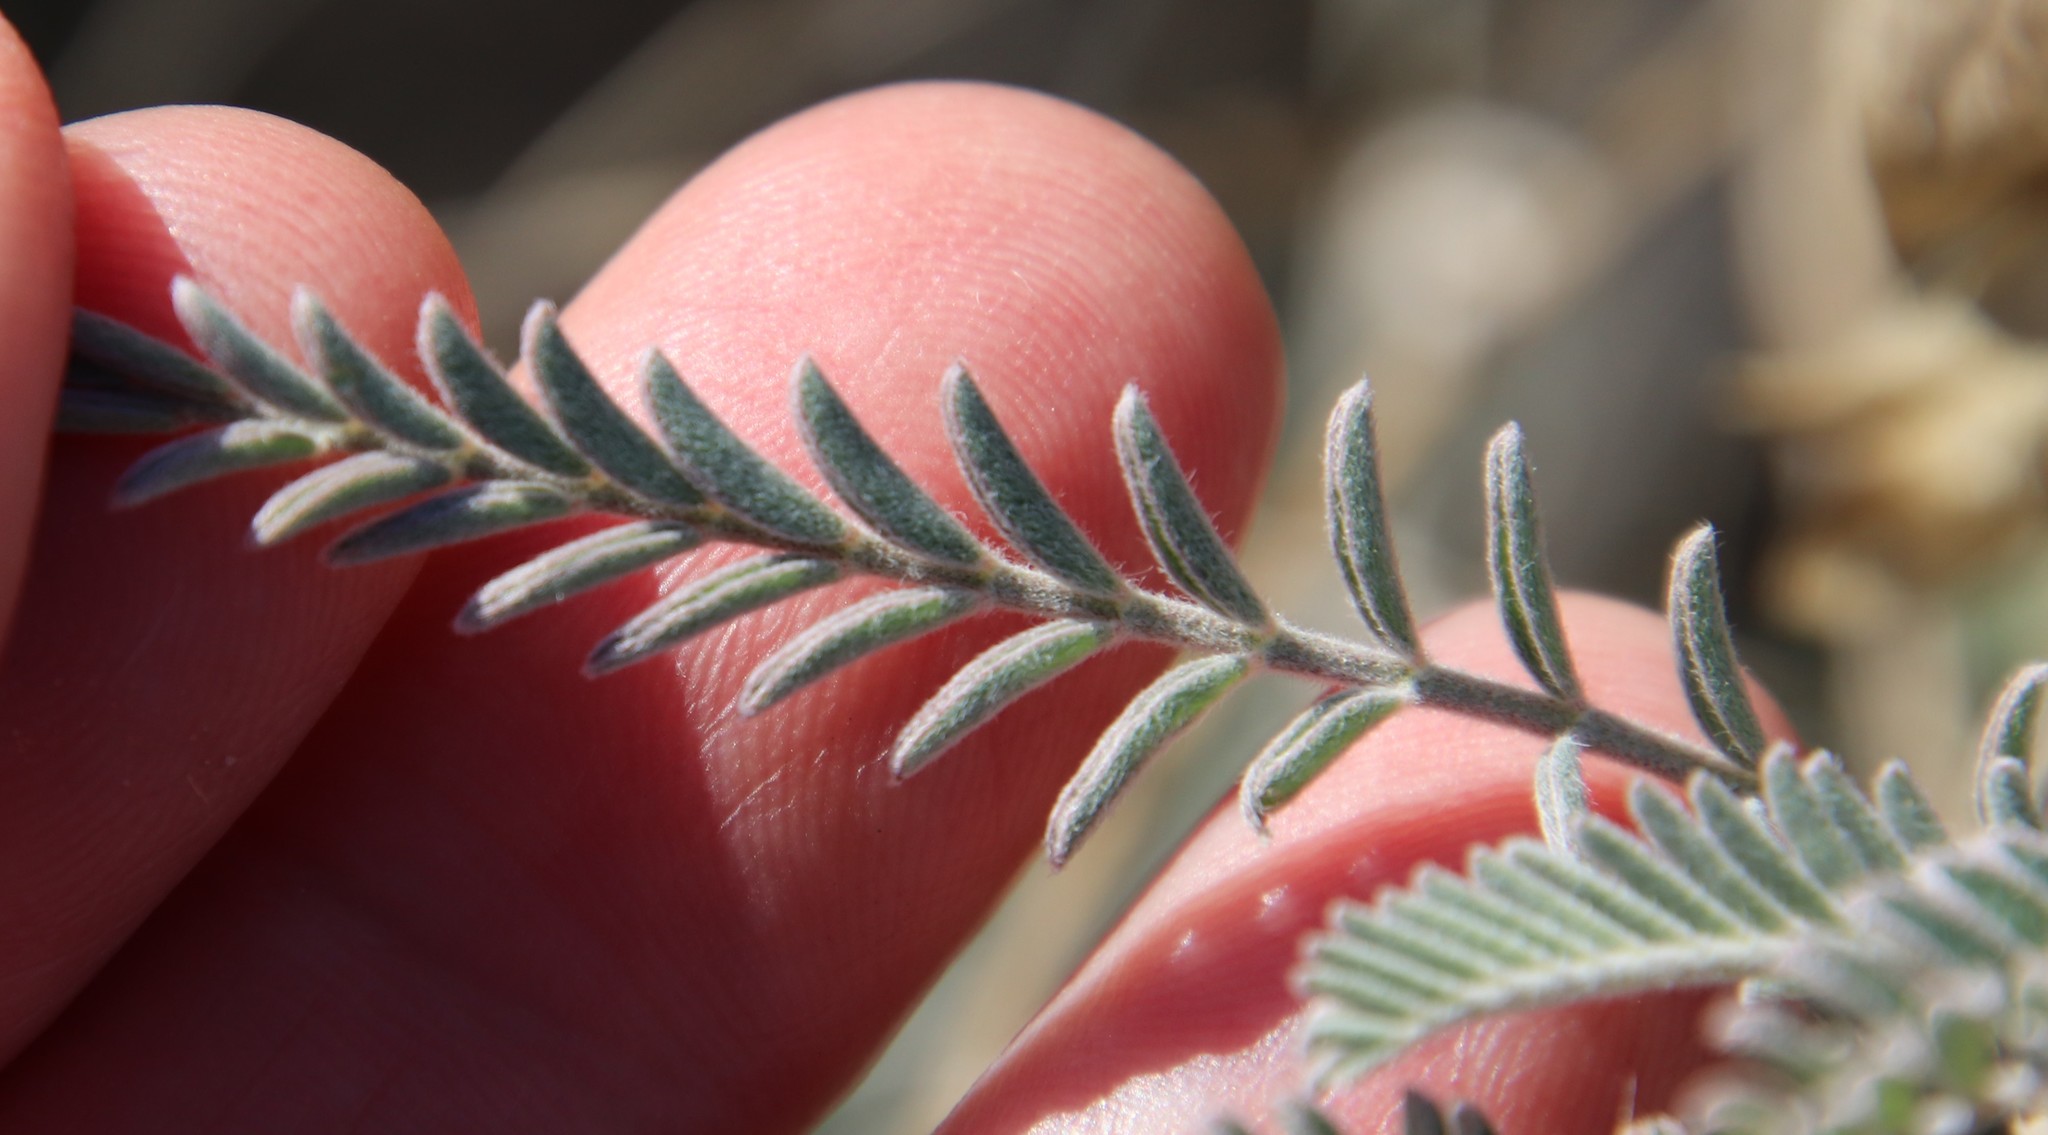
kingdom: Plantae
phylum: Tracheophyta
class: Magnoliopsida
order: Fabales
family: Fabaceae
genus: Astragalus
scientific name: Astragalus trichopodus
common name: Santa barbara milk-vetch
